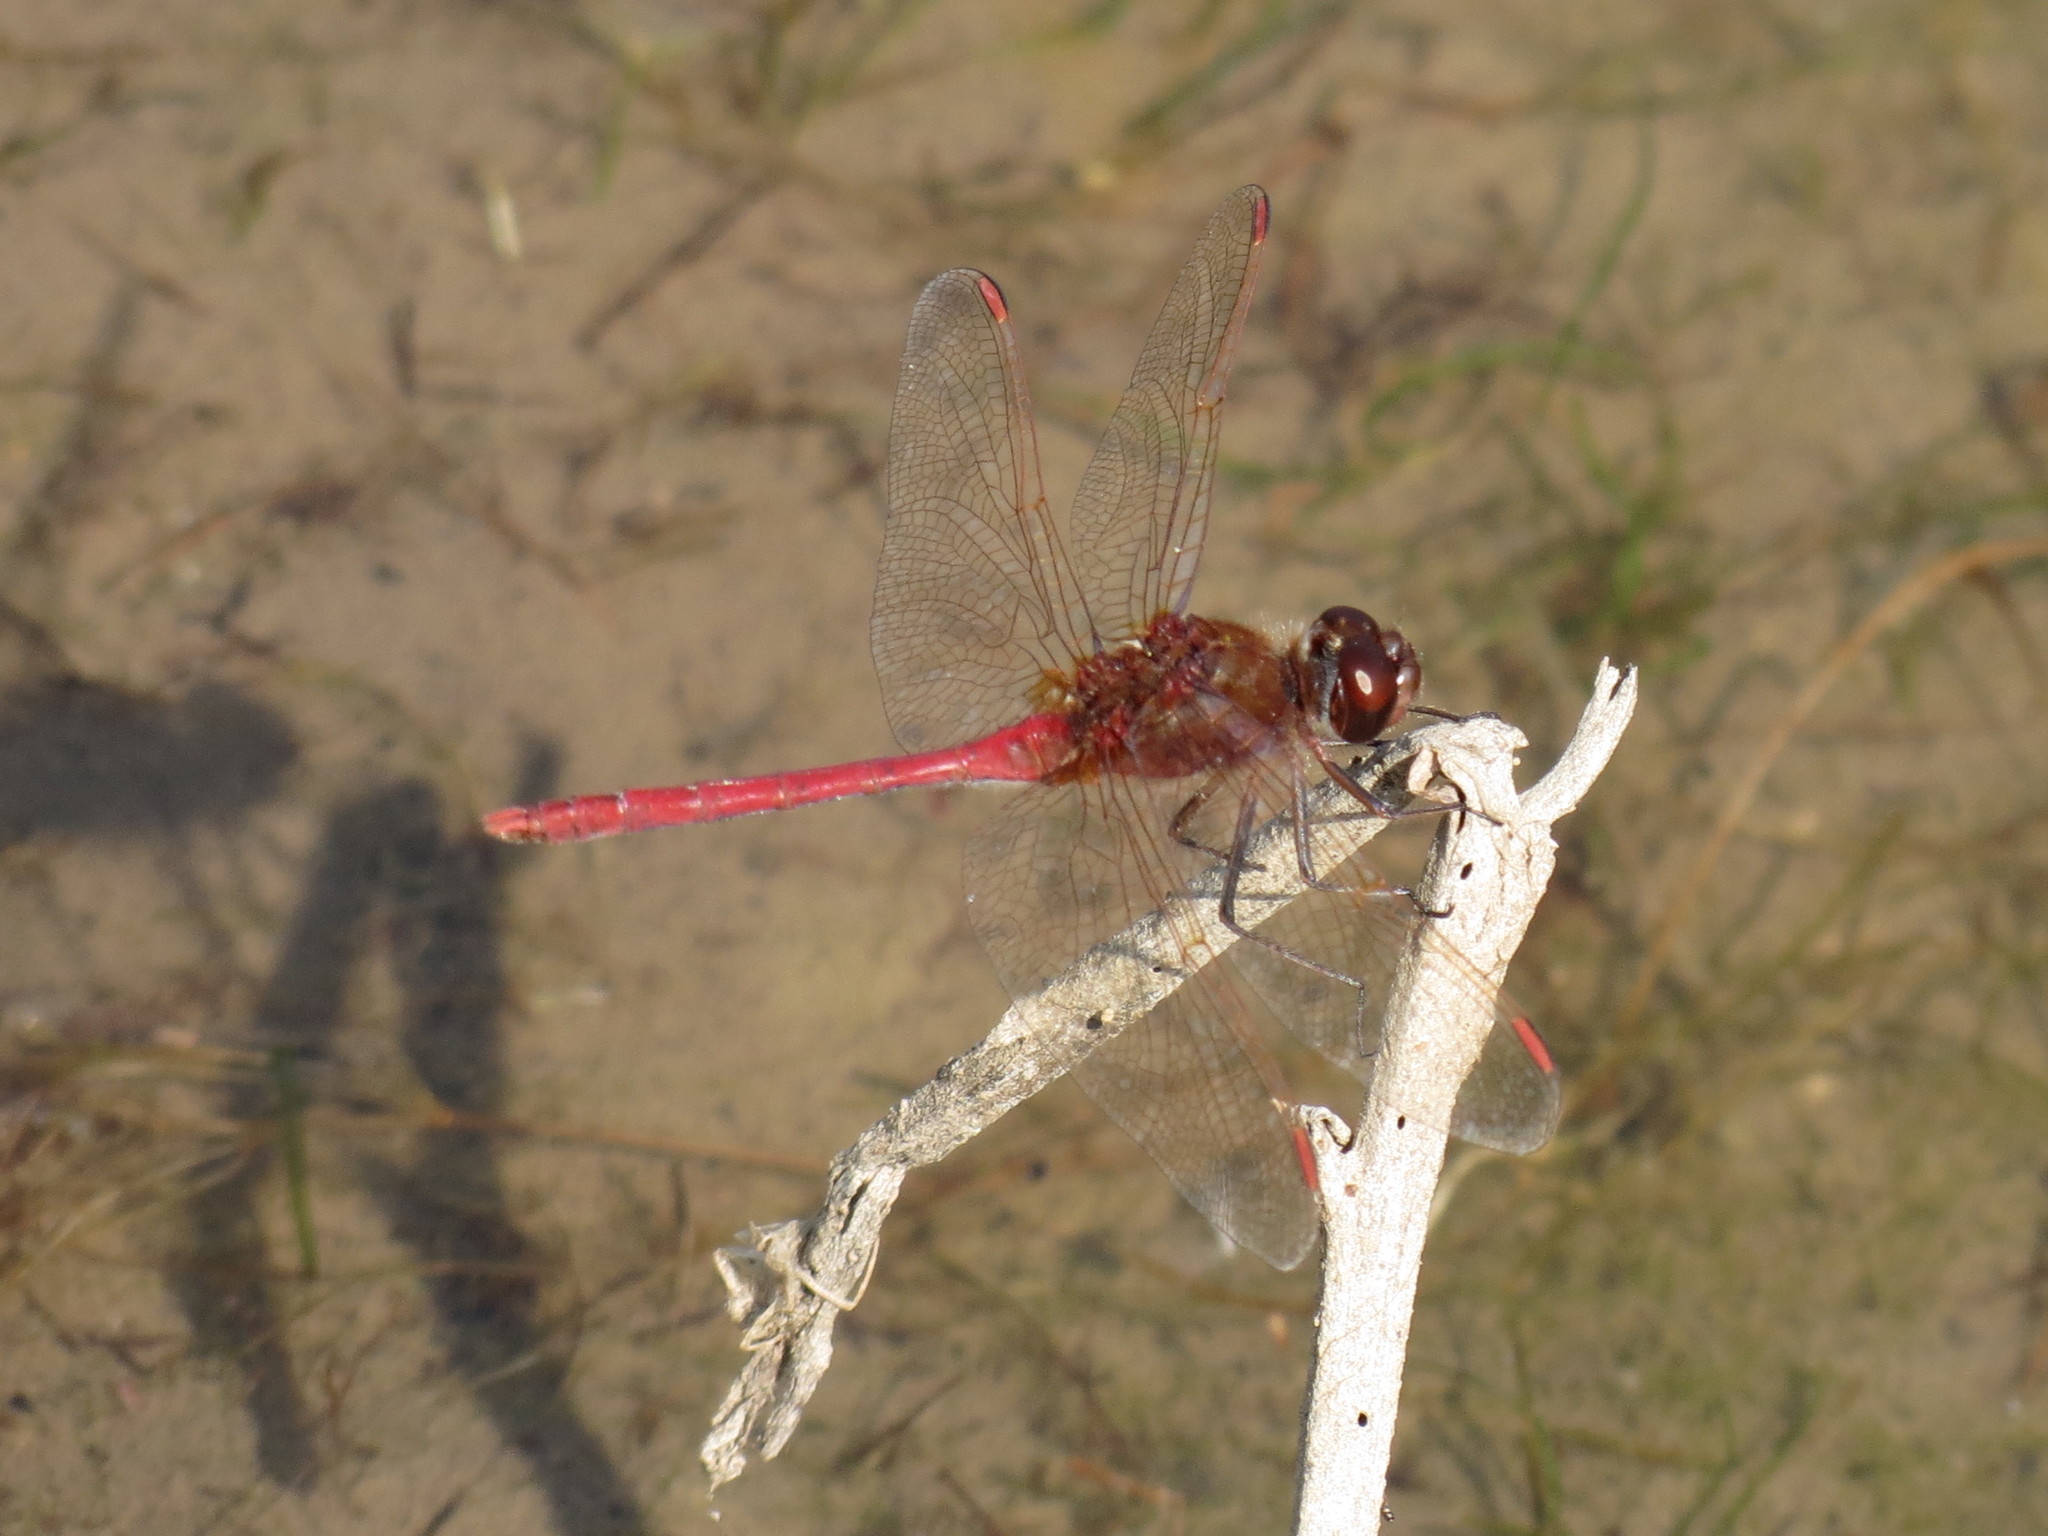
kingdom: Animalia
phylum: Arthropoda
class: Insecta
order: Odonata
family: Libellulidae
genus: Sympetrum
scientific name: Sympetrum costiferum
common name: Saffron-winged meadowhawk
